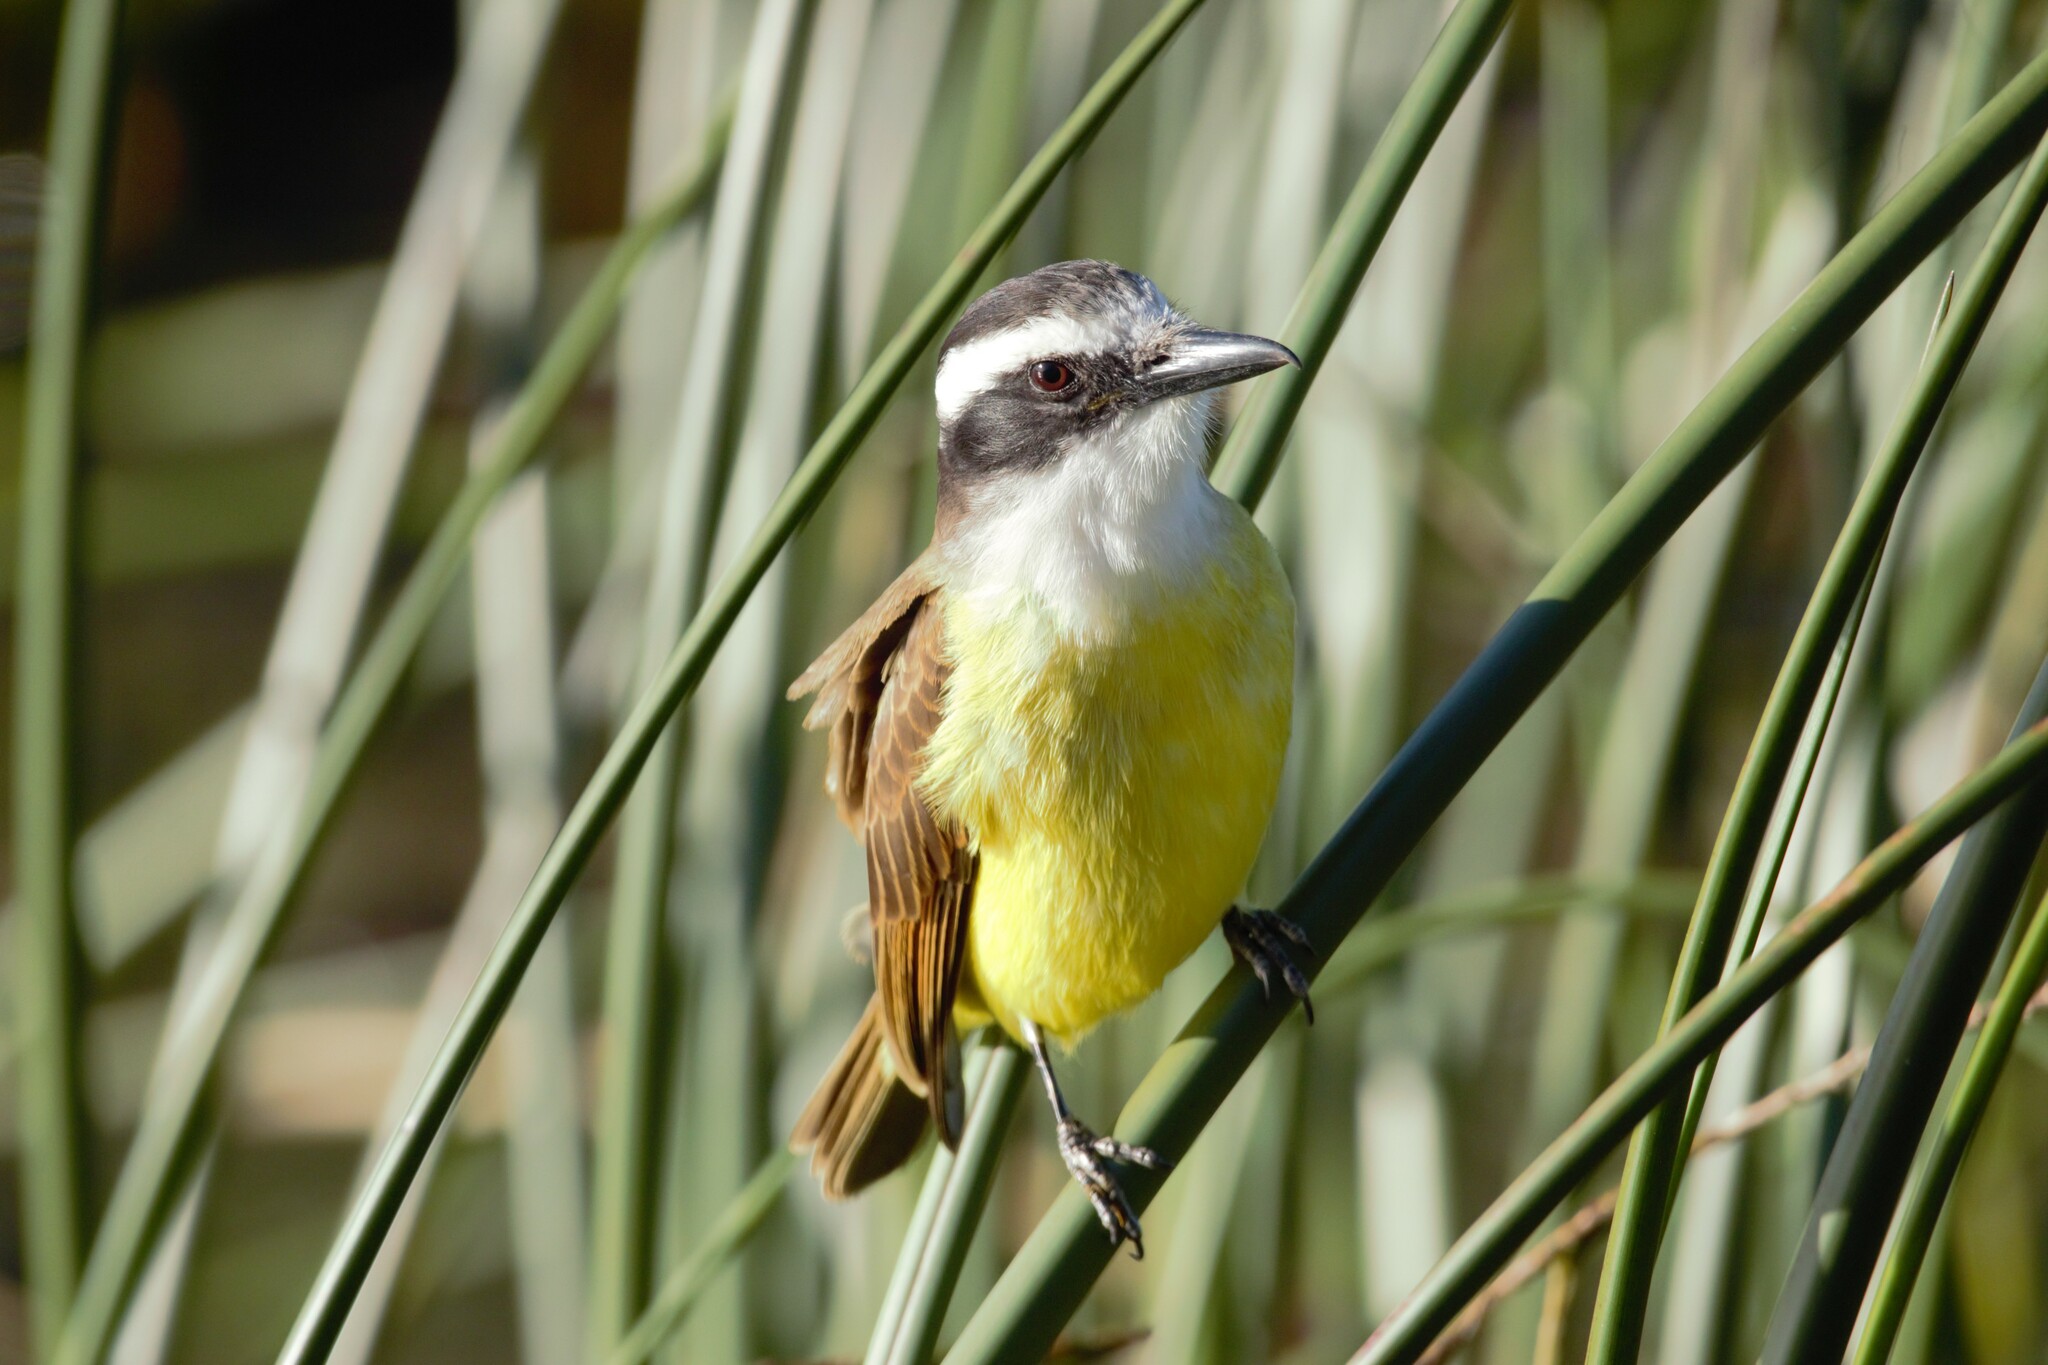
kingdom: Animalia
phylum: Chordata
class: Aves
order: Passeriformes
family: Tyrannidae
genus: Pitangus
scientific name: Pitangus sulphuratus
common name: Great kiskadee
